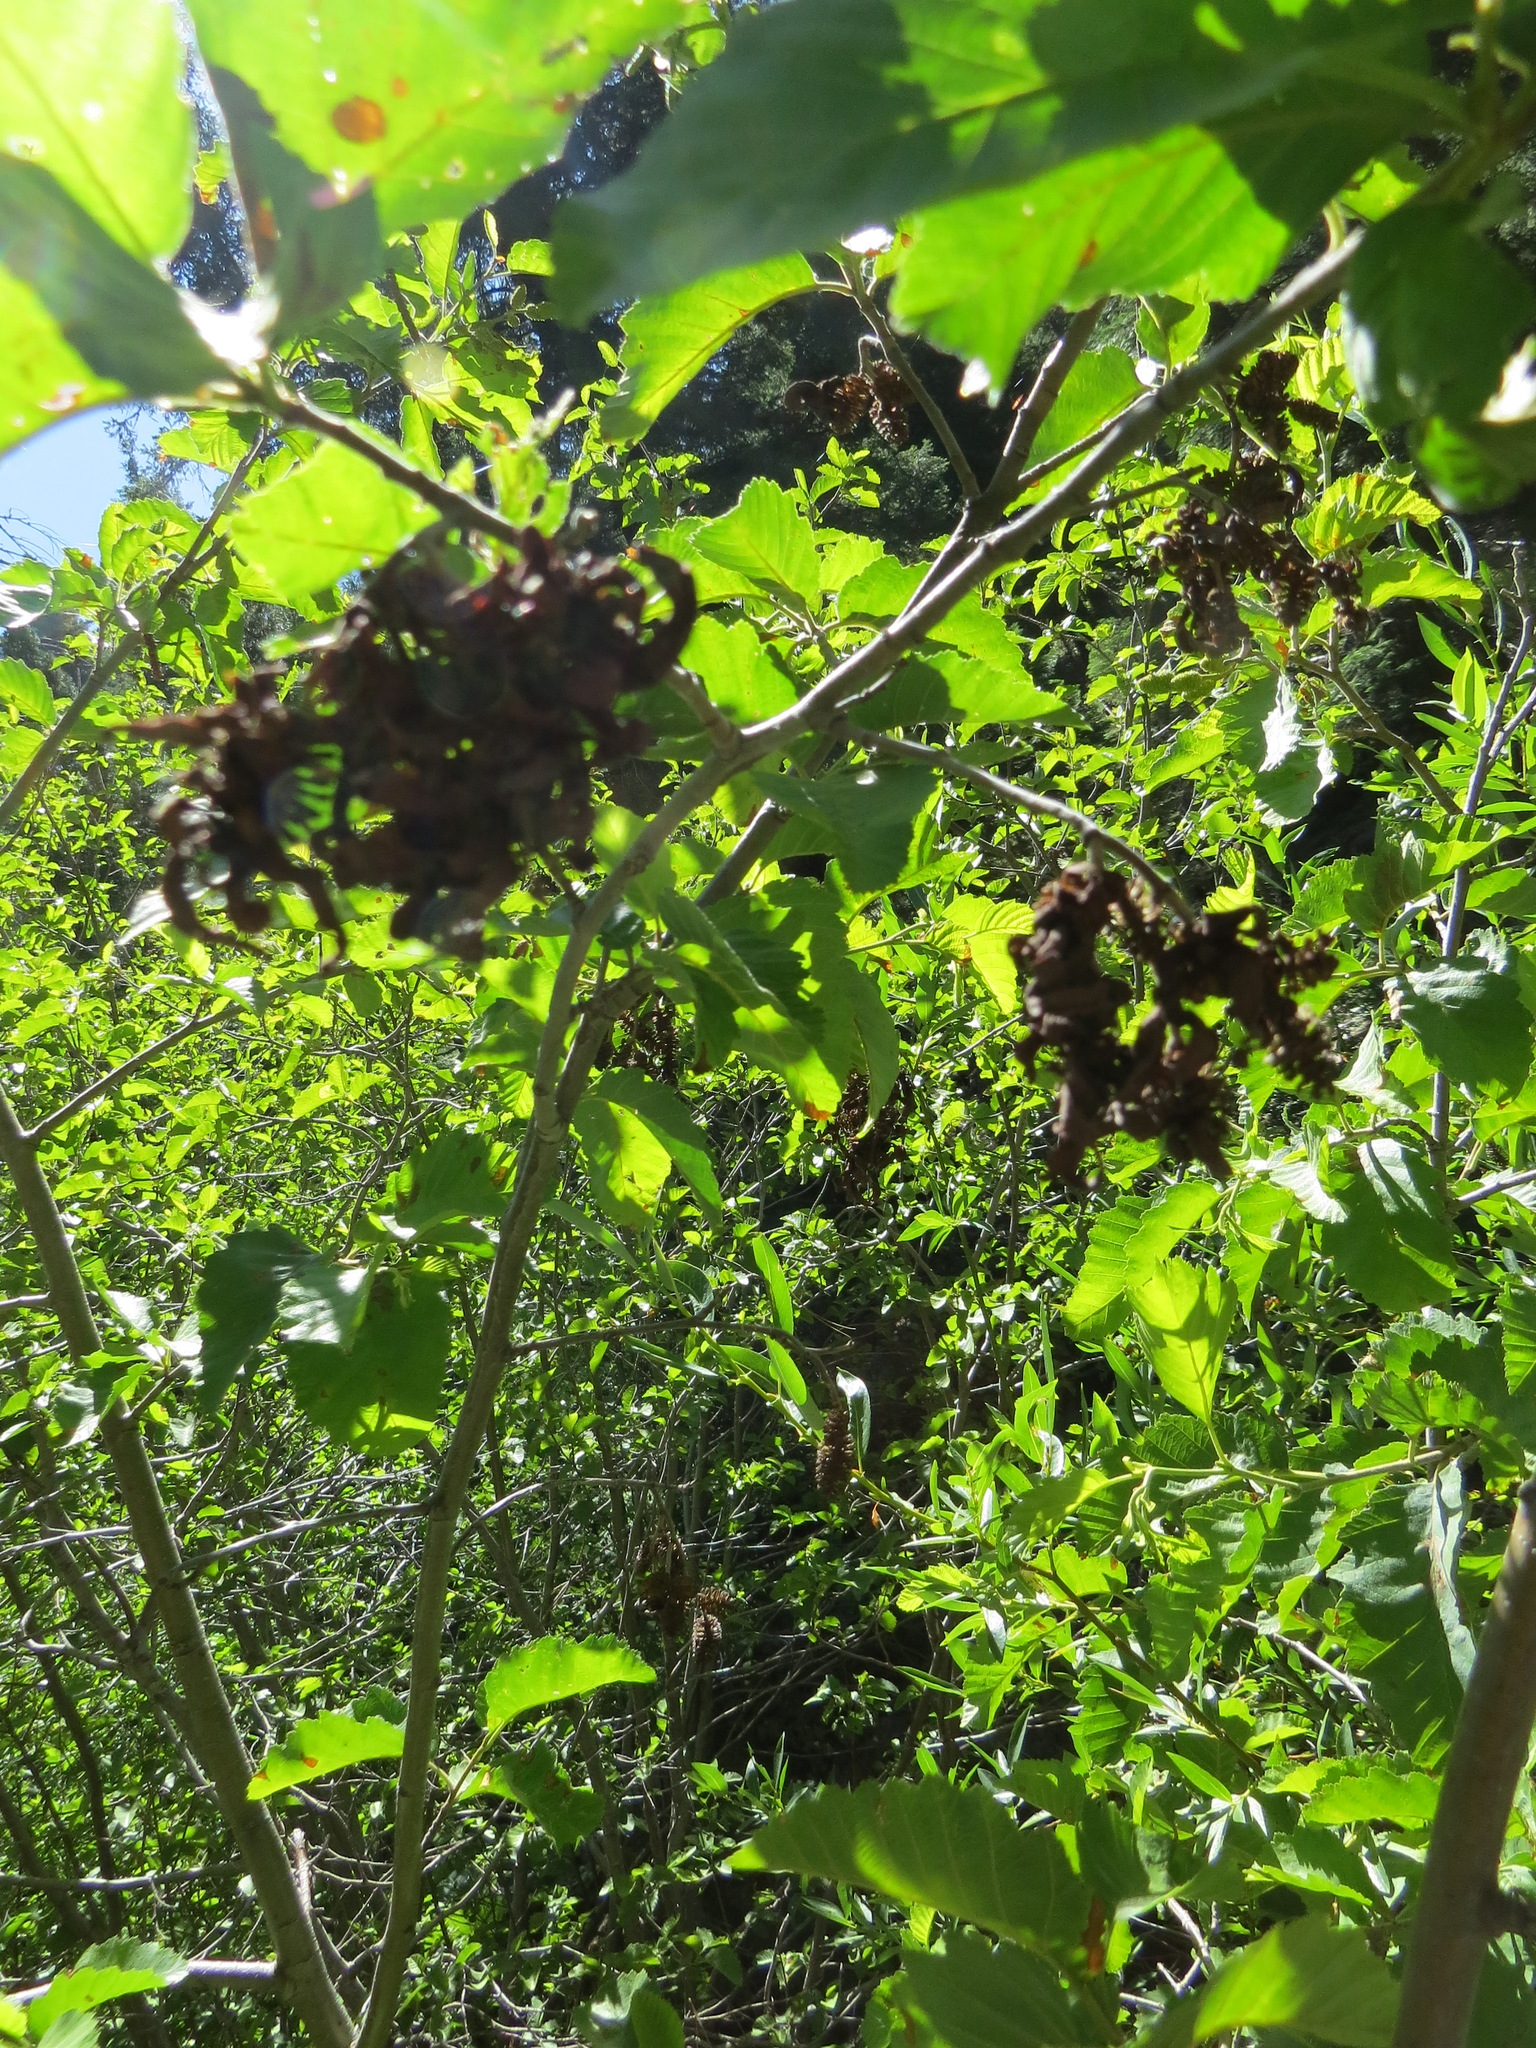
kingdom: Fungi
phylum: Ascomycota
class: Taphrinomycetes
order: Taphrinales
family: Taphrinaceae
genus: Taphrina
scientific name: Taphrina occidentalis
